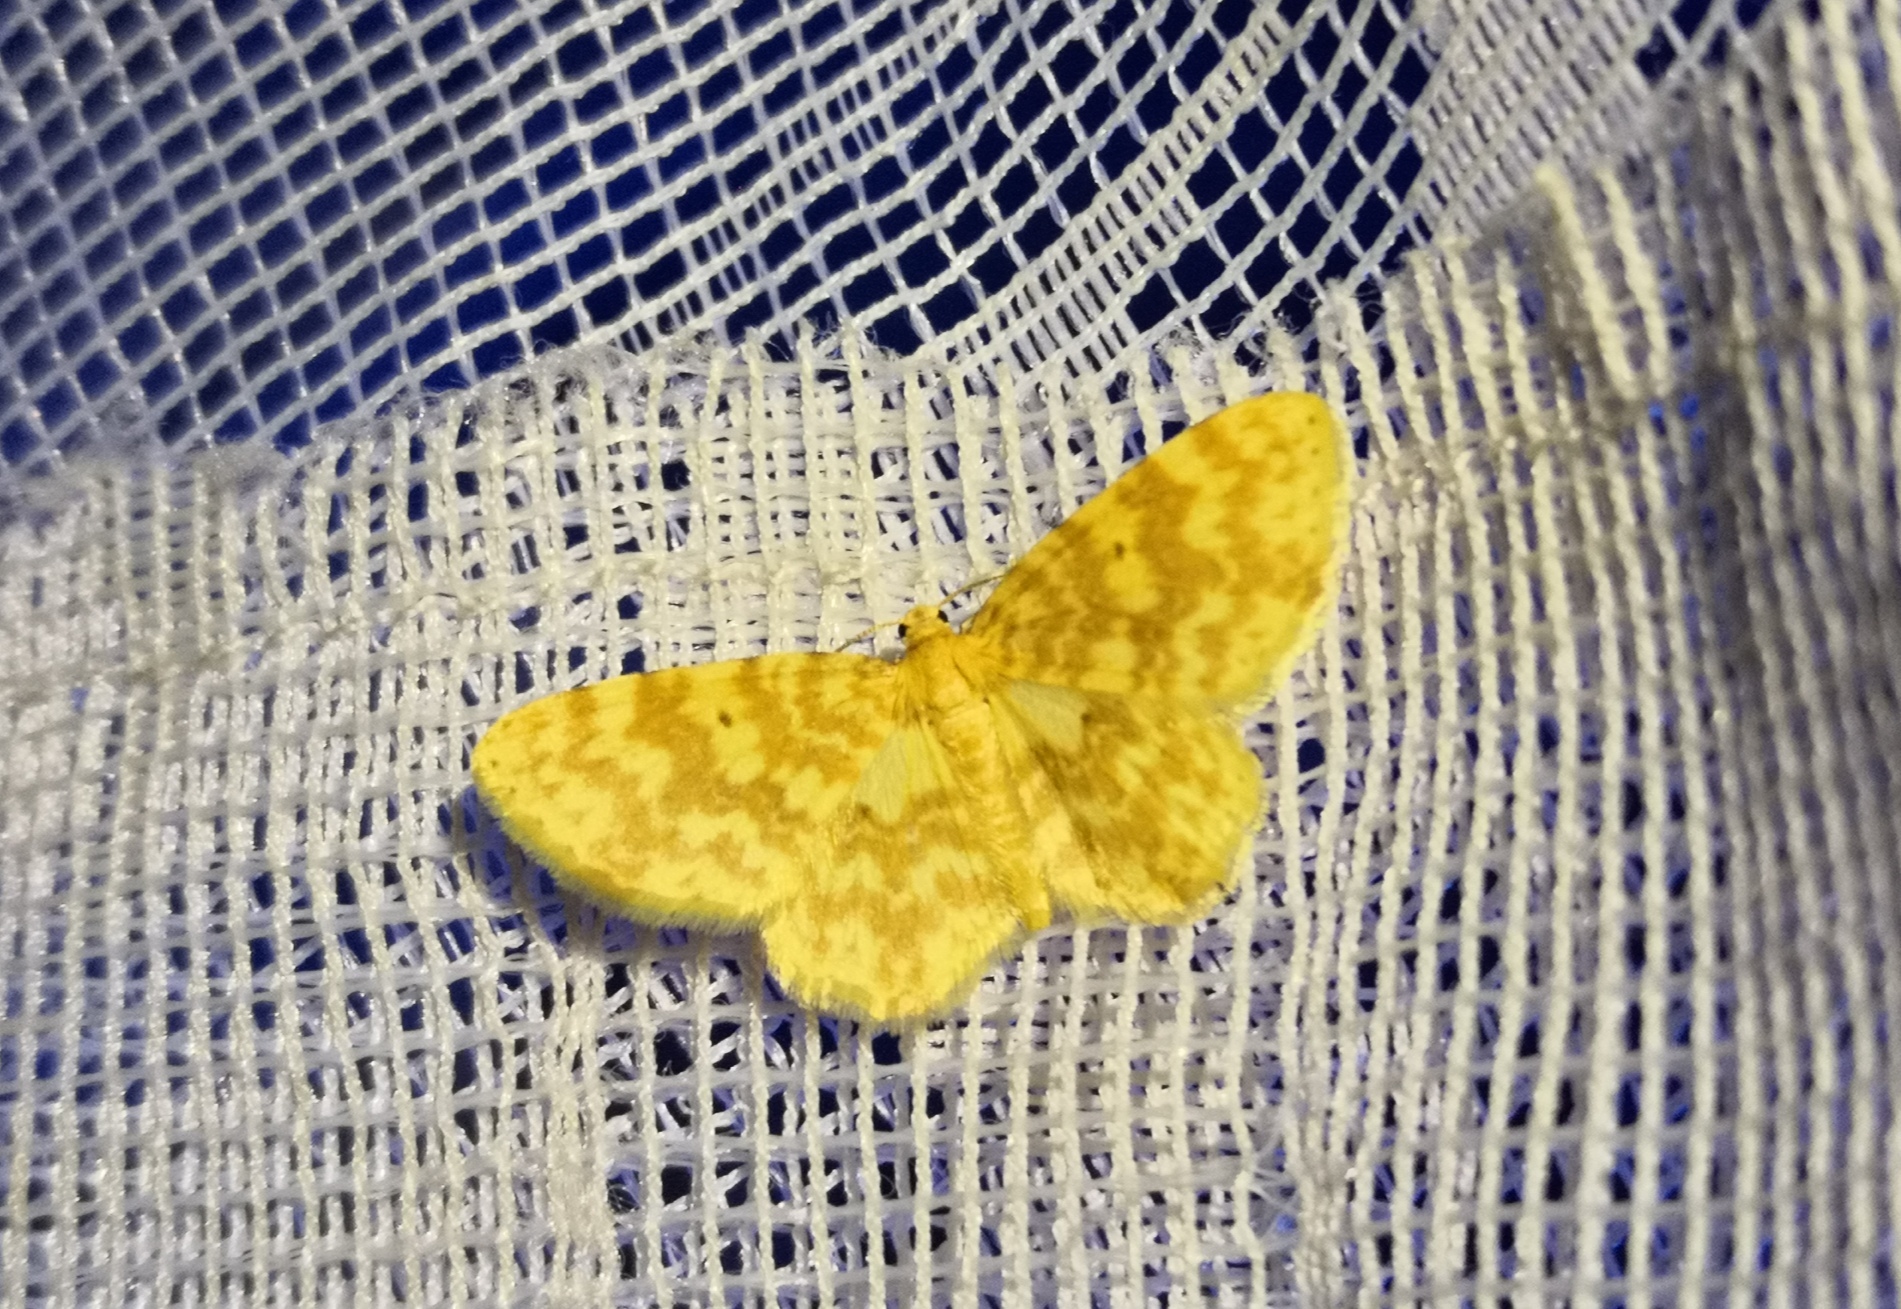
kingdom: Animalia
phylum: Arthropoda
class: Insecta
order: Lepidoptera
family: Geometridae
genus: Hydrelia
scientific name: Hydrelia flammeolaria
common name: Small yellow wave
